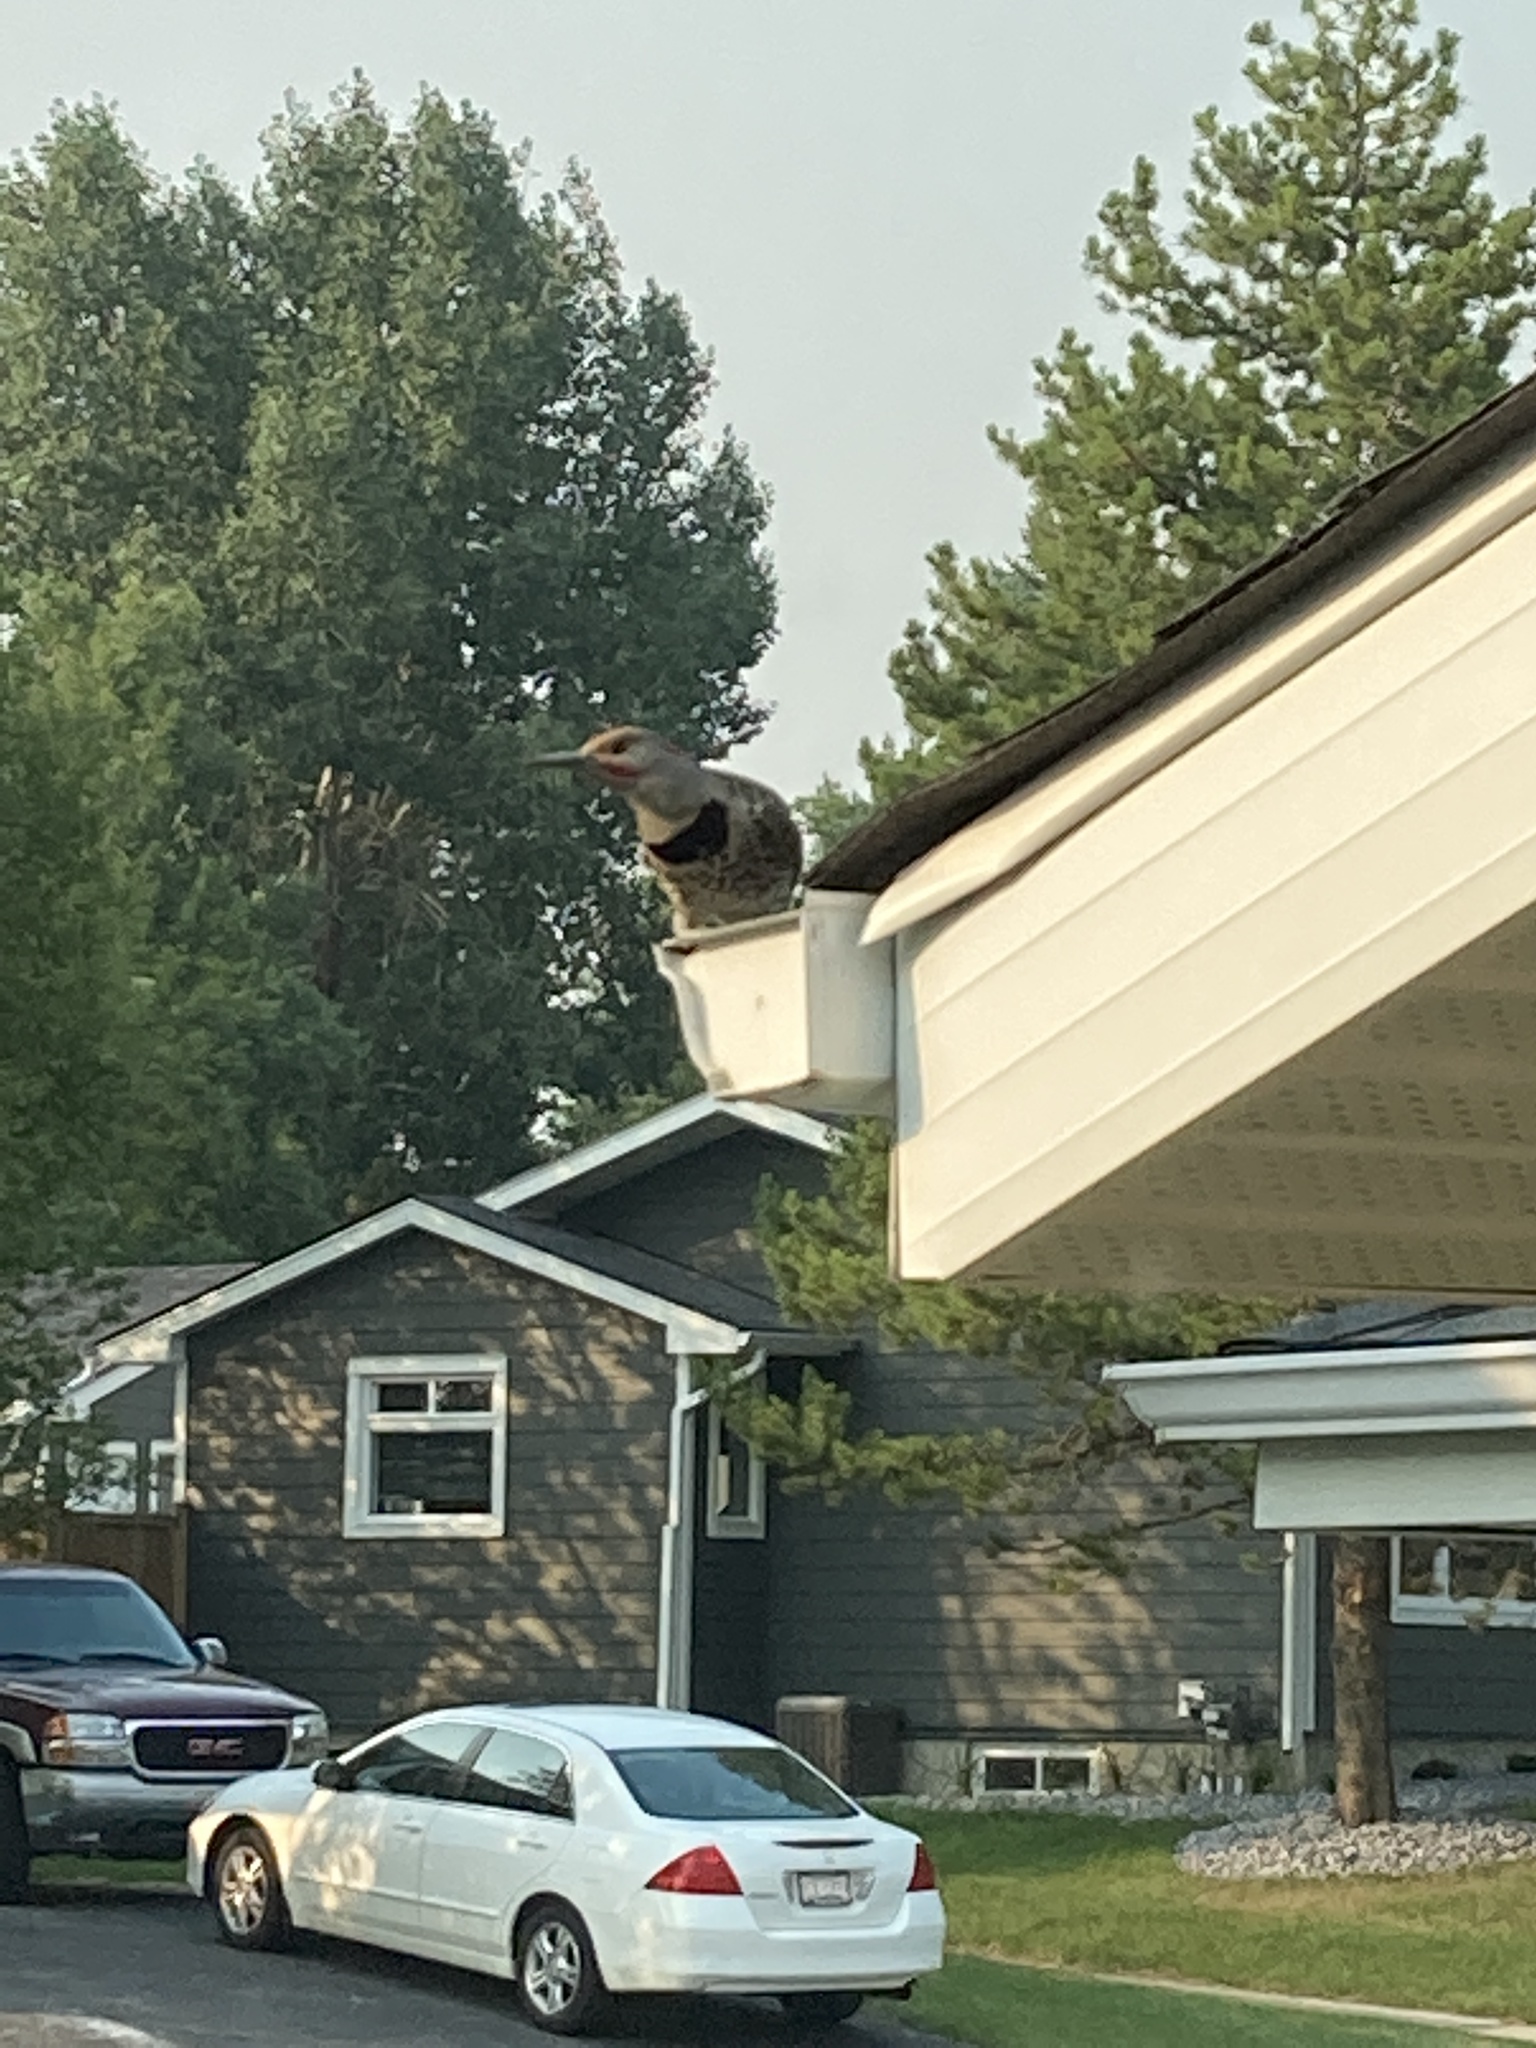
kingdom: Animalia
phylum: Chordata
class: Aves
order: Piciformes
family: Picidae
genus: Colaptes
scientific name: Colaptes auratus
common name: Northern flicker
